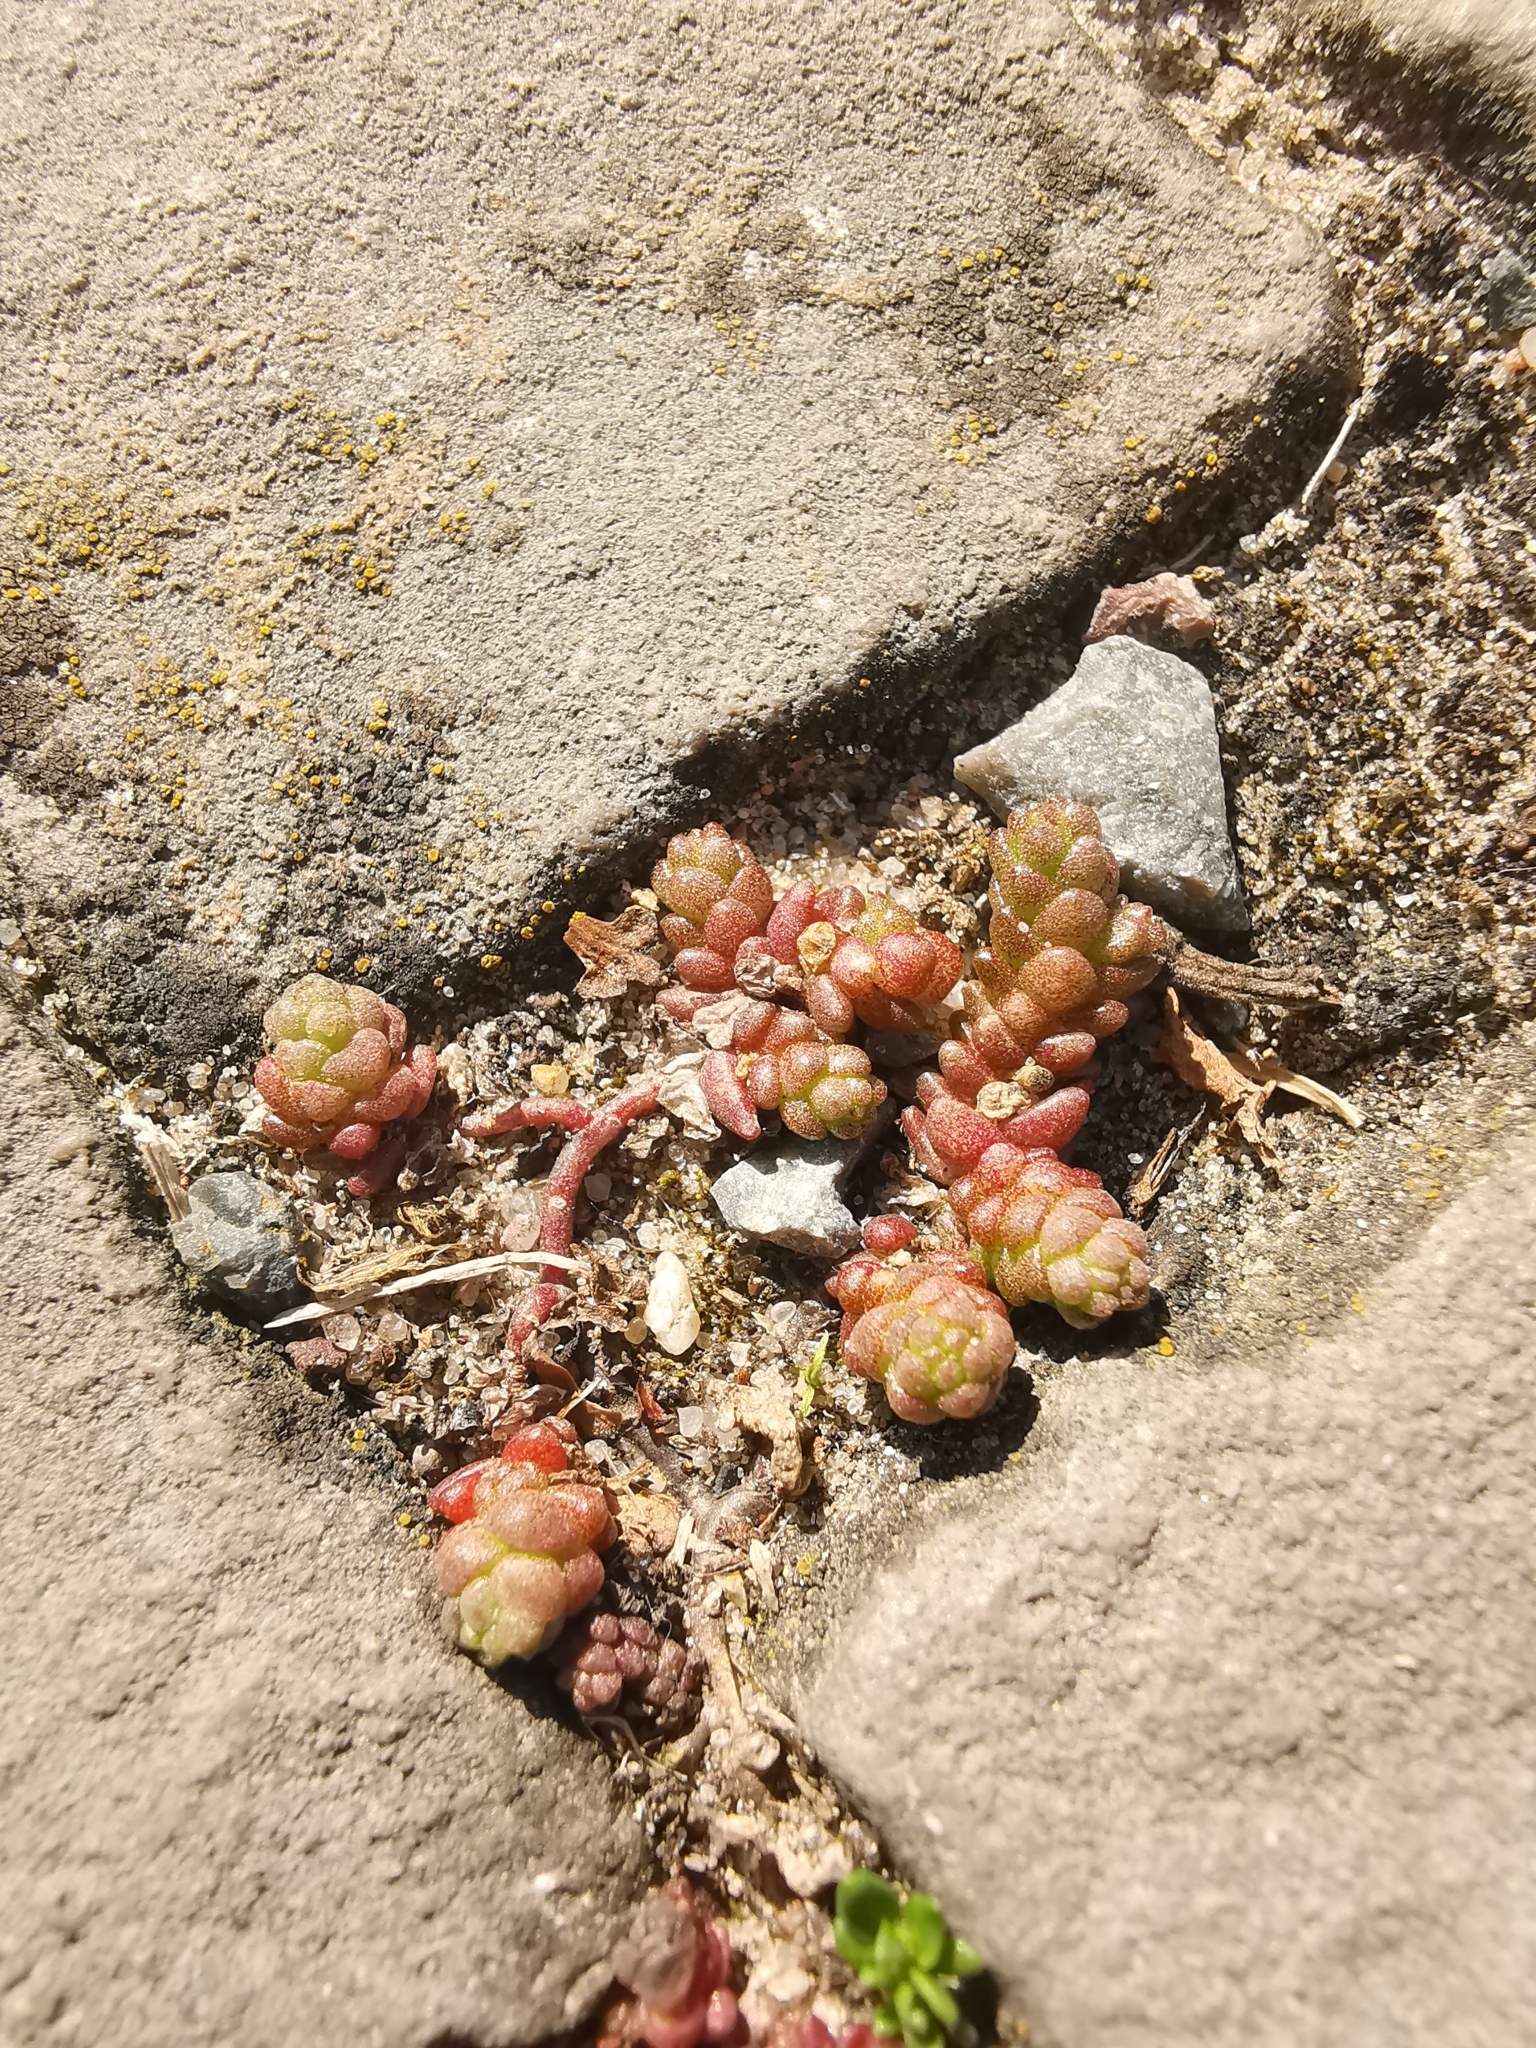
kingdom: Plantae
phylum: Tracheophyta
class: Magnoliopsida
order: Saxifragales
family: Crassulaceae
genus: Sedum
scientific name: Sedum acre
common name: Biting stonecrop
